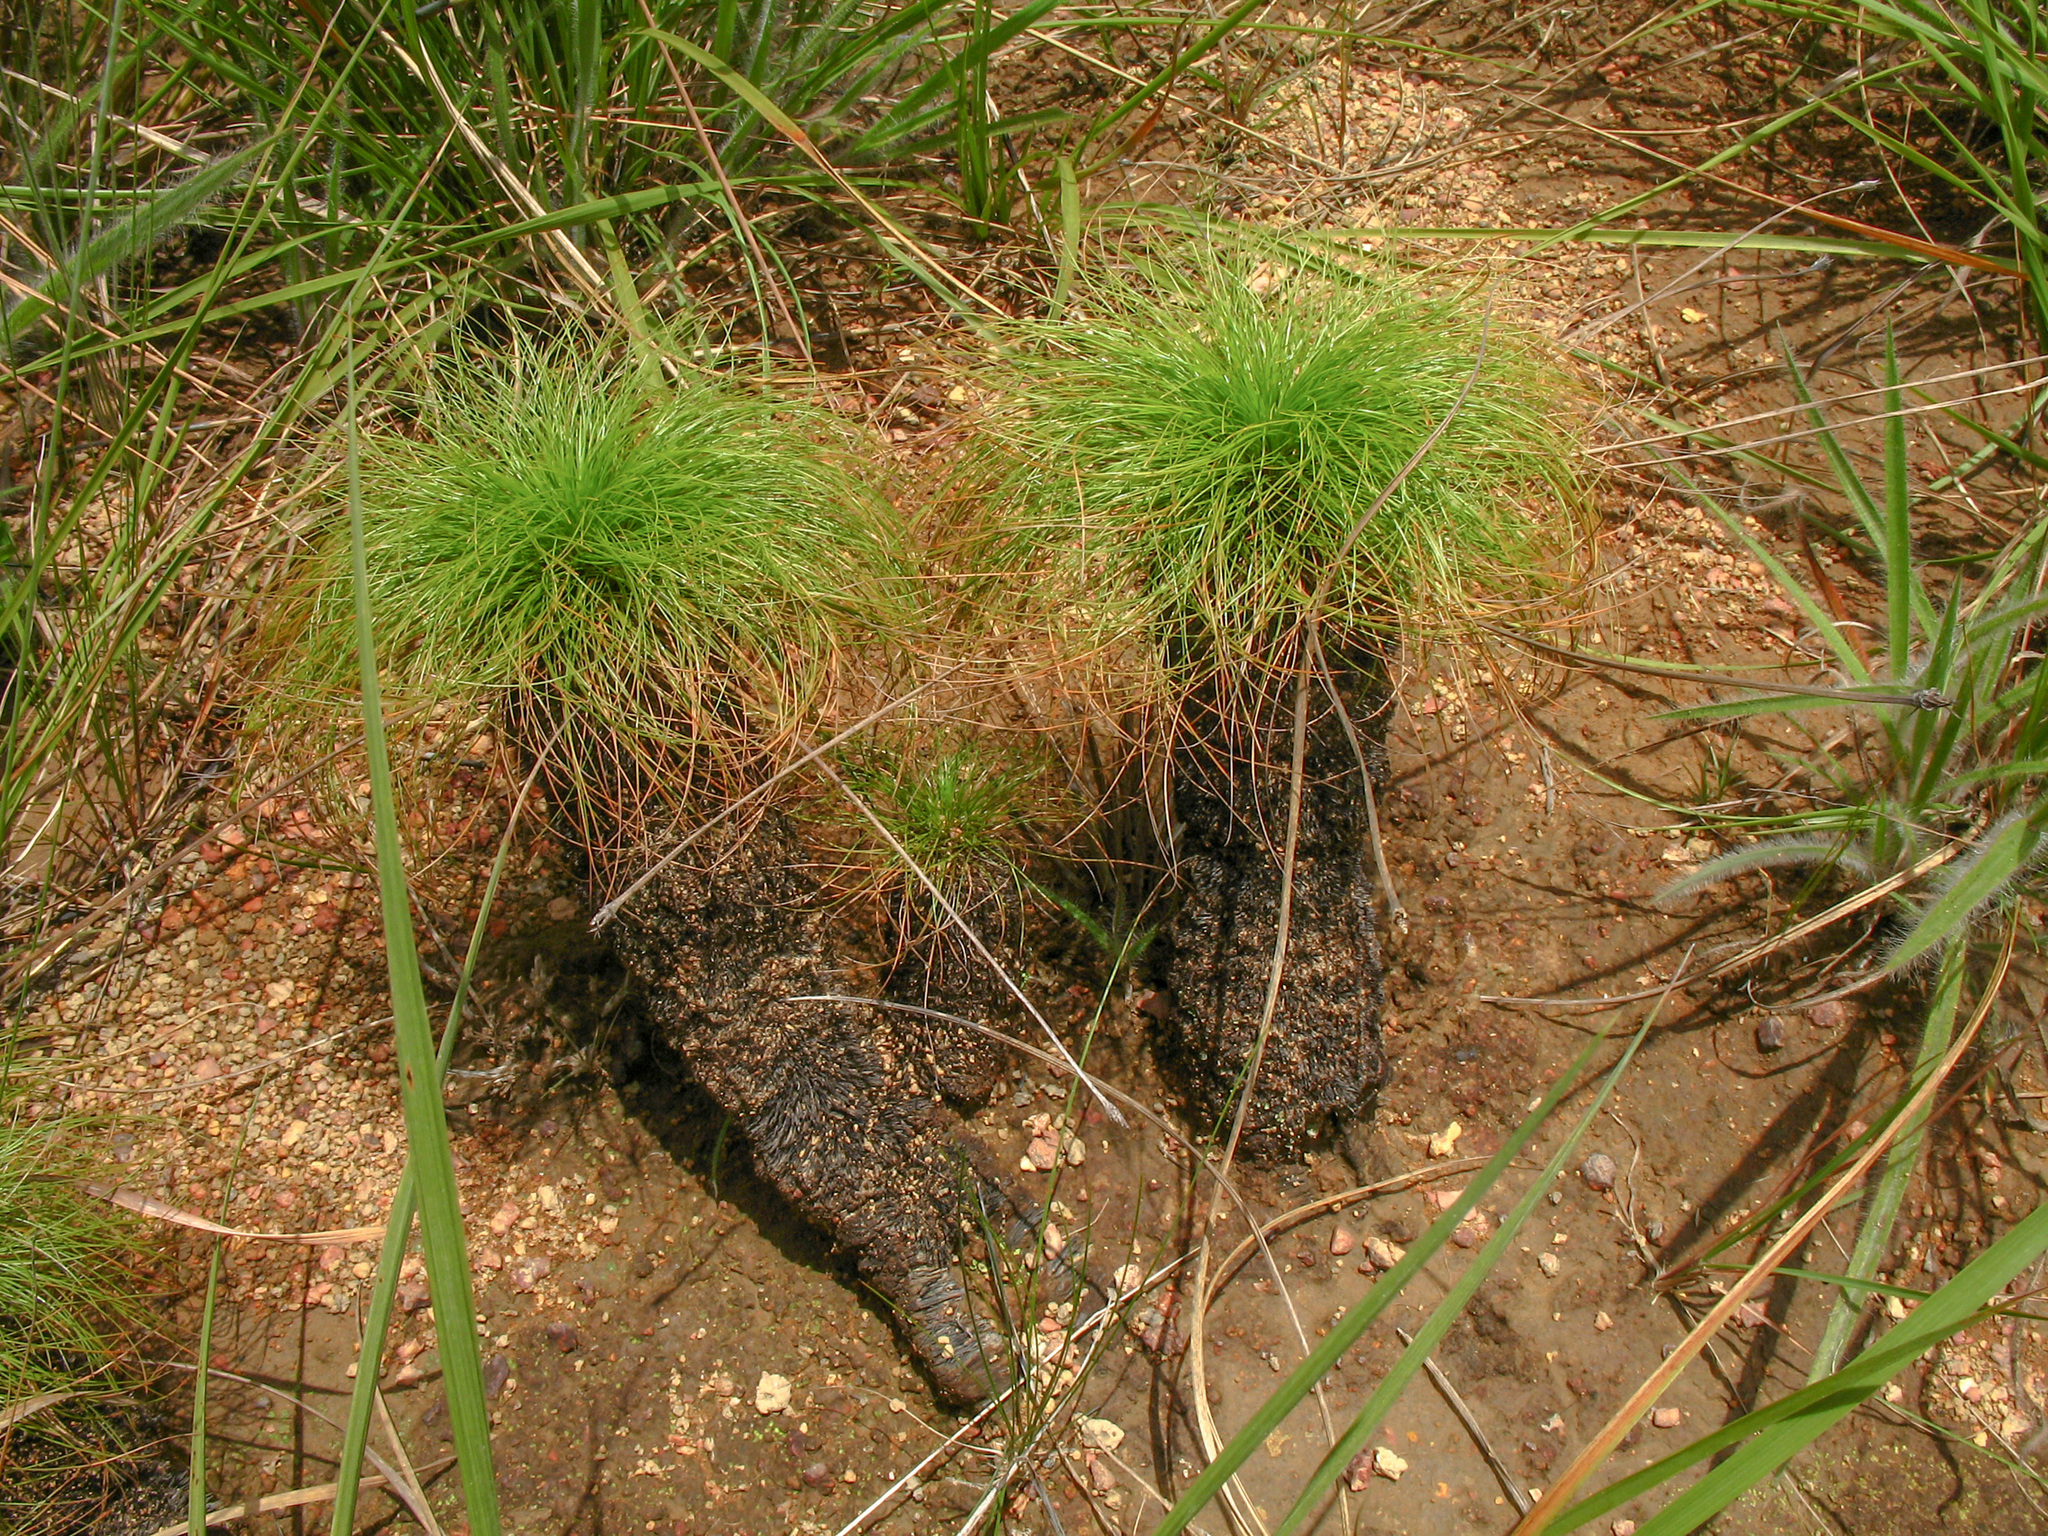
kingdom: Plantae
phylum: Tracheophyta
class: Liliopsida
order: Poales
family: Cyperaceae
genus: Bulbostylis
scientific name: Bulbostylis paradoxa
